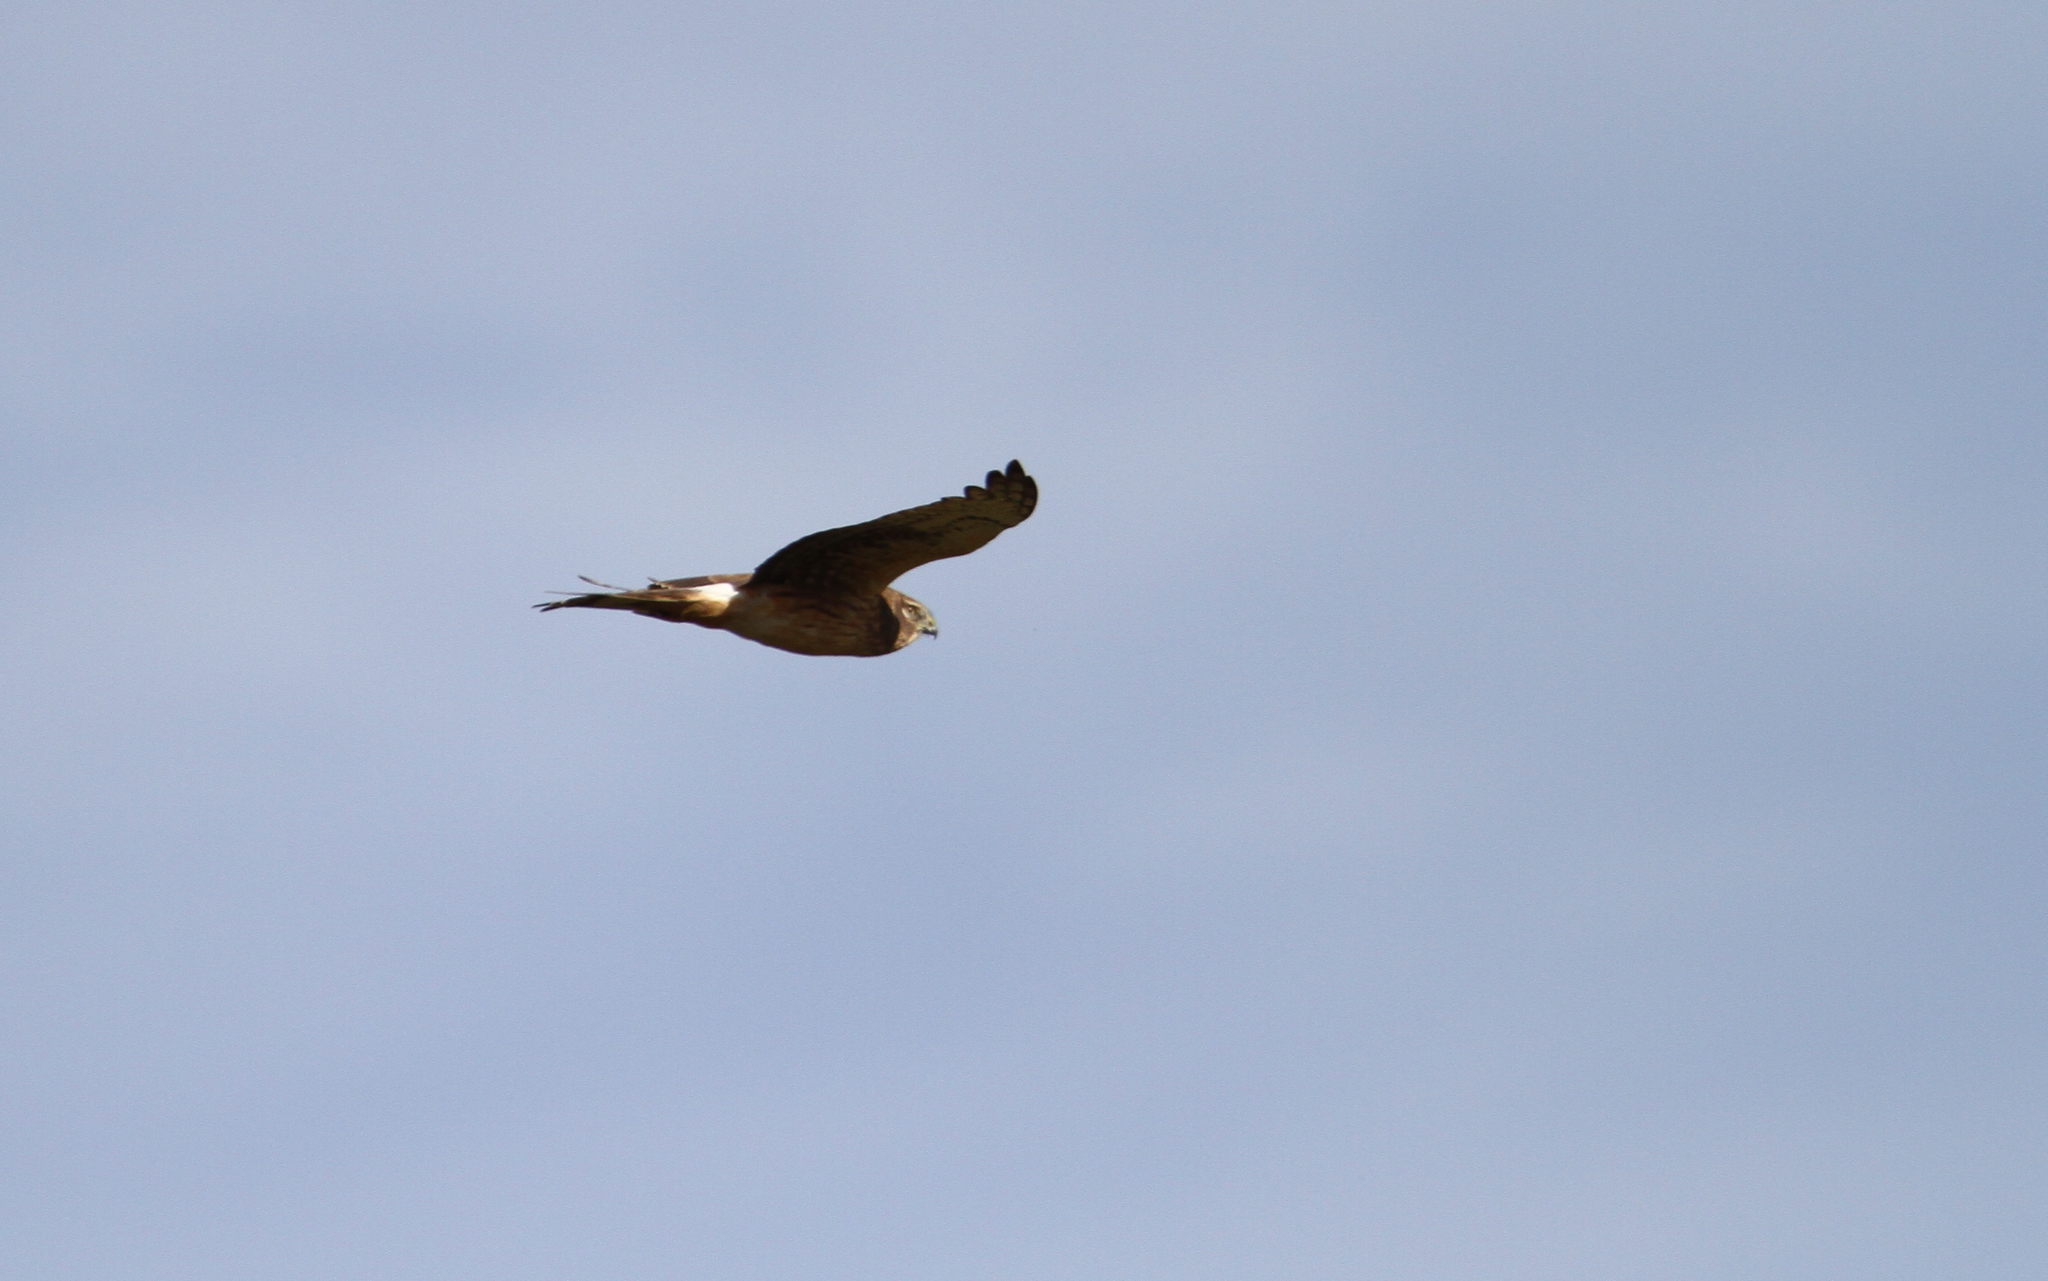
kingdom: Animalia
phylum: Chordata
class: Aves
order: Accipitriformes
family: Accipitridae
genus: Circus
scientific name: Circus cyaneus
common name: Hen harrier
